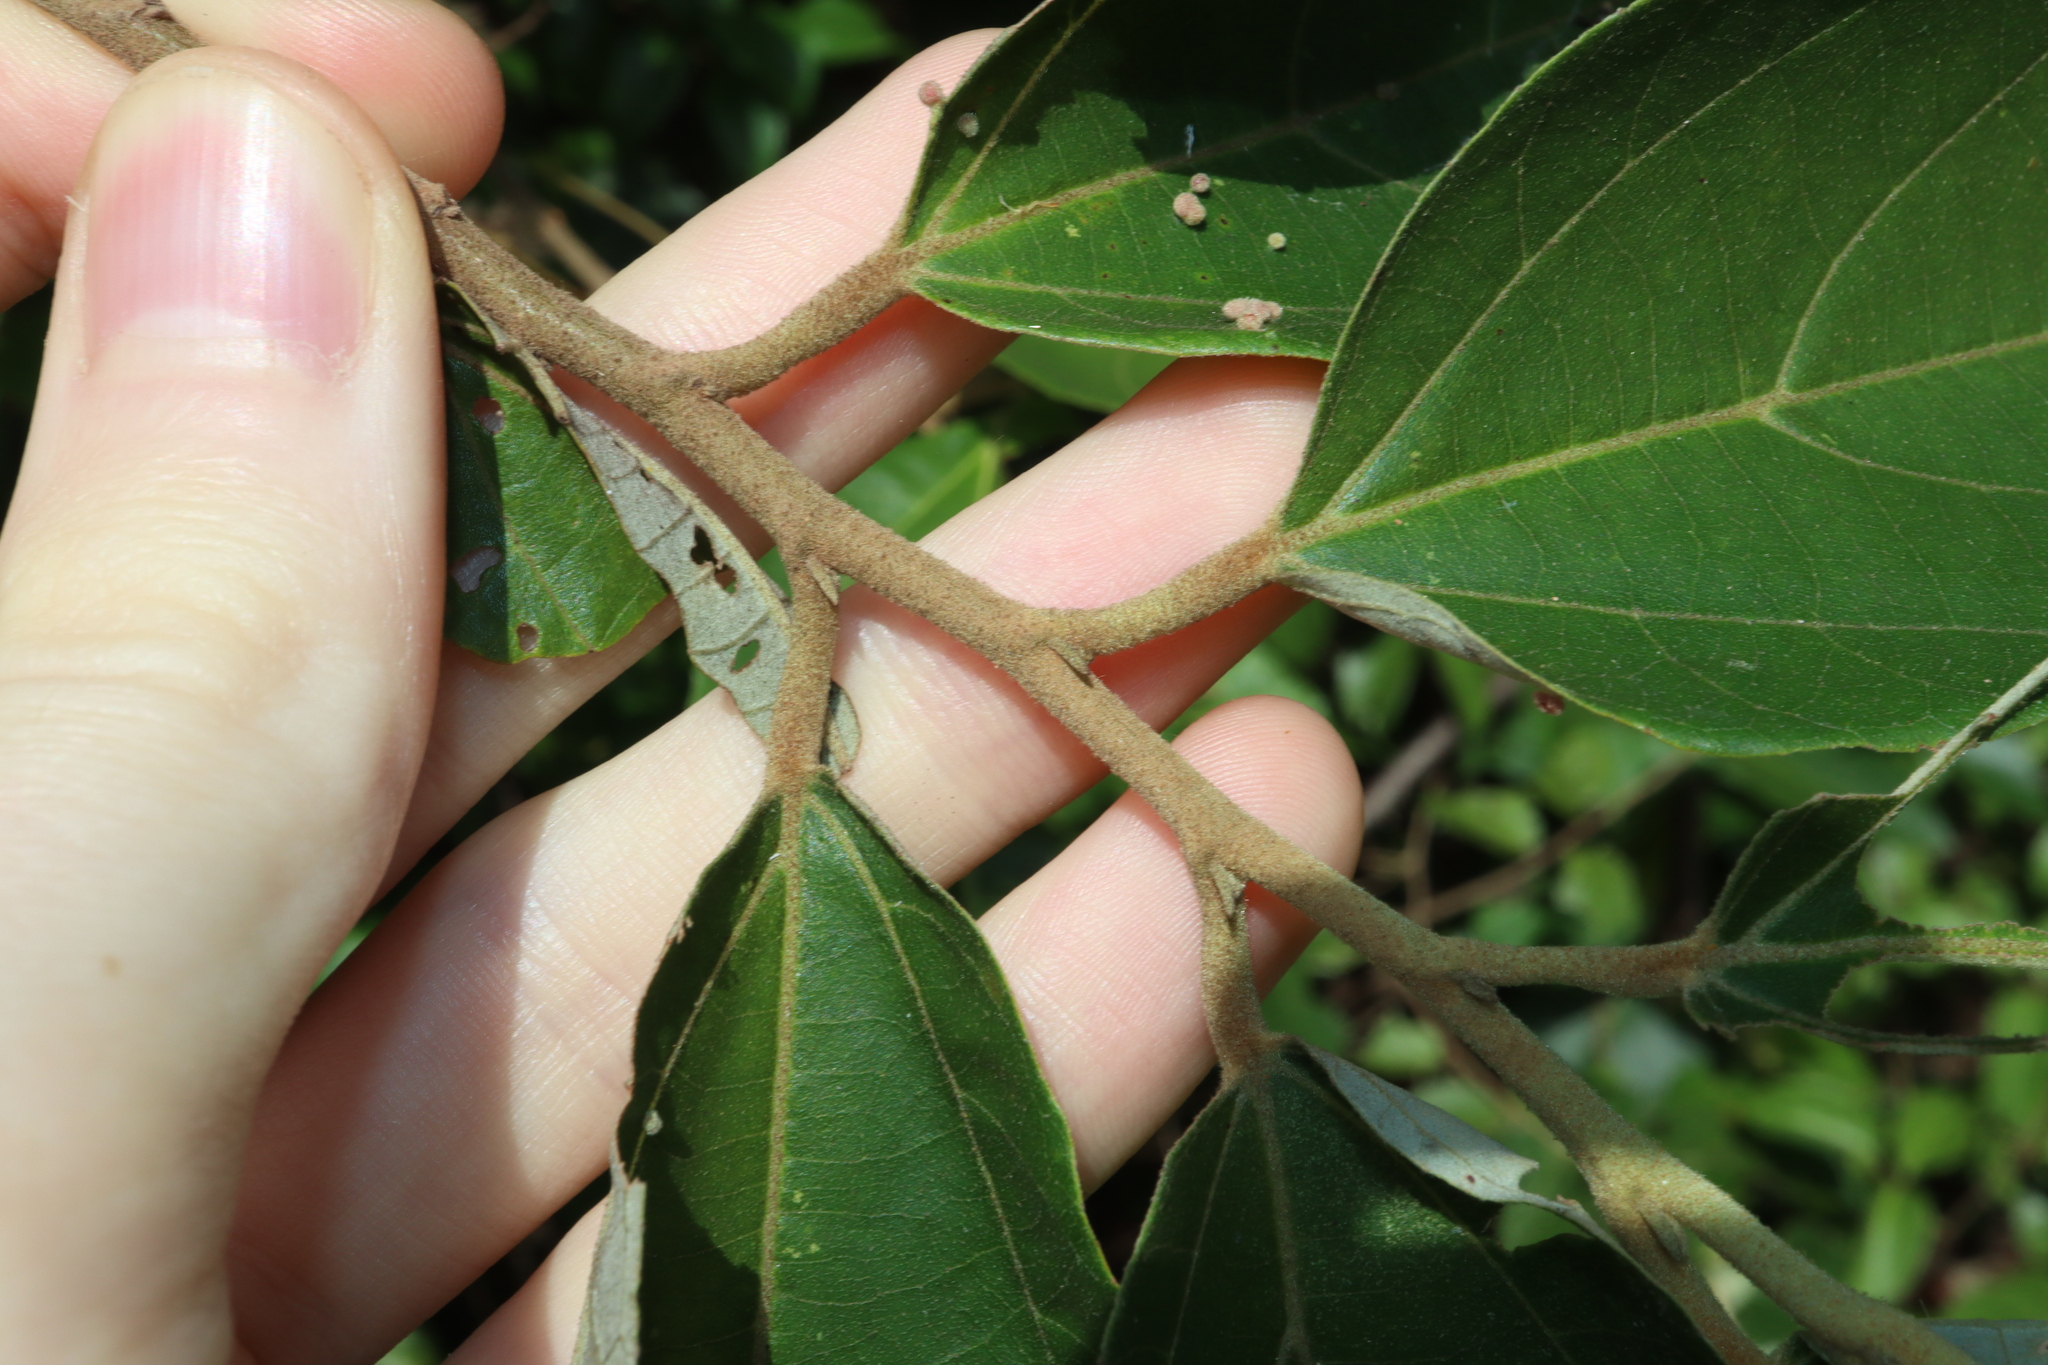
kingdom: Plantae
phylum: Tracheophyta
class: Magnoliopsida
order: Malvales
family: Malvaceae
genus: Commersonia
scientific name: Commersonia bartramia
